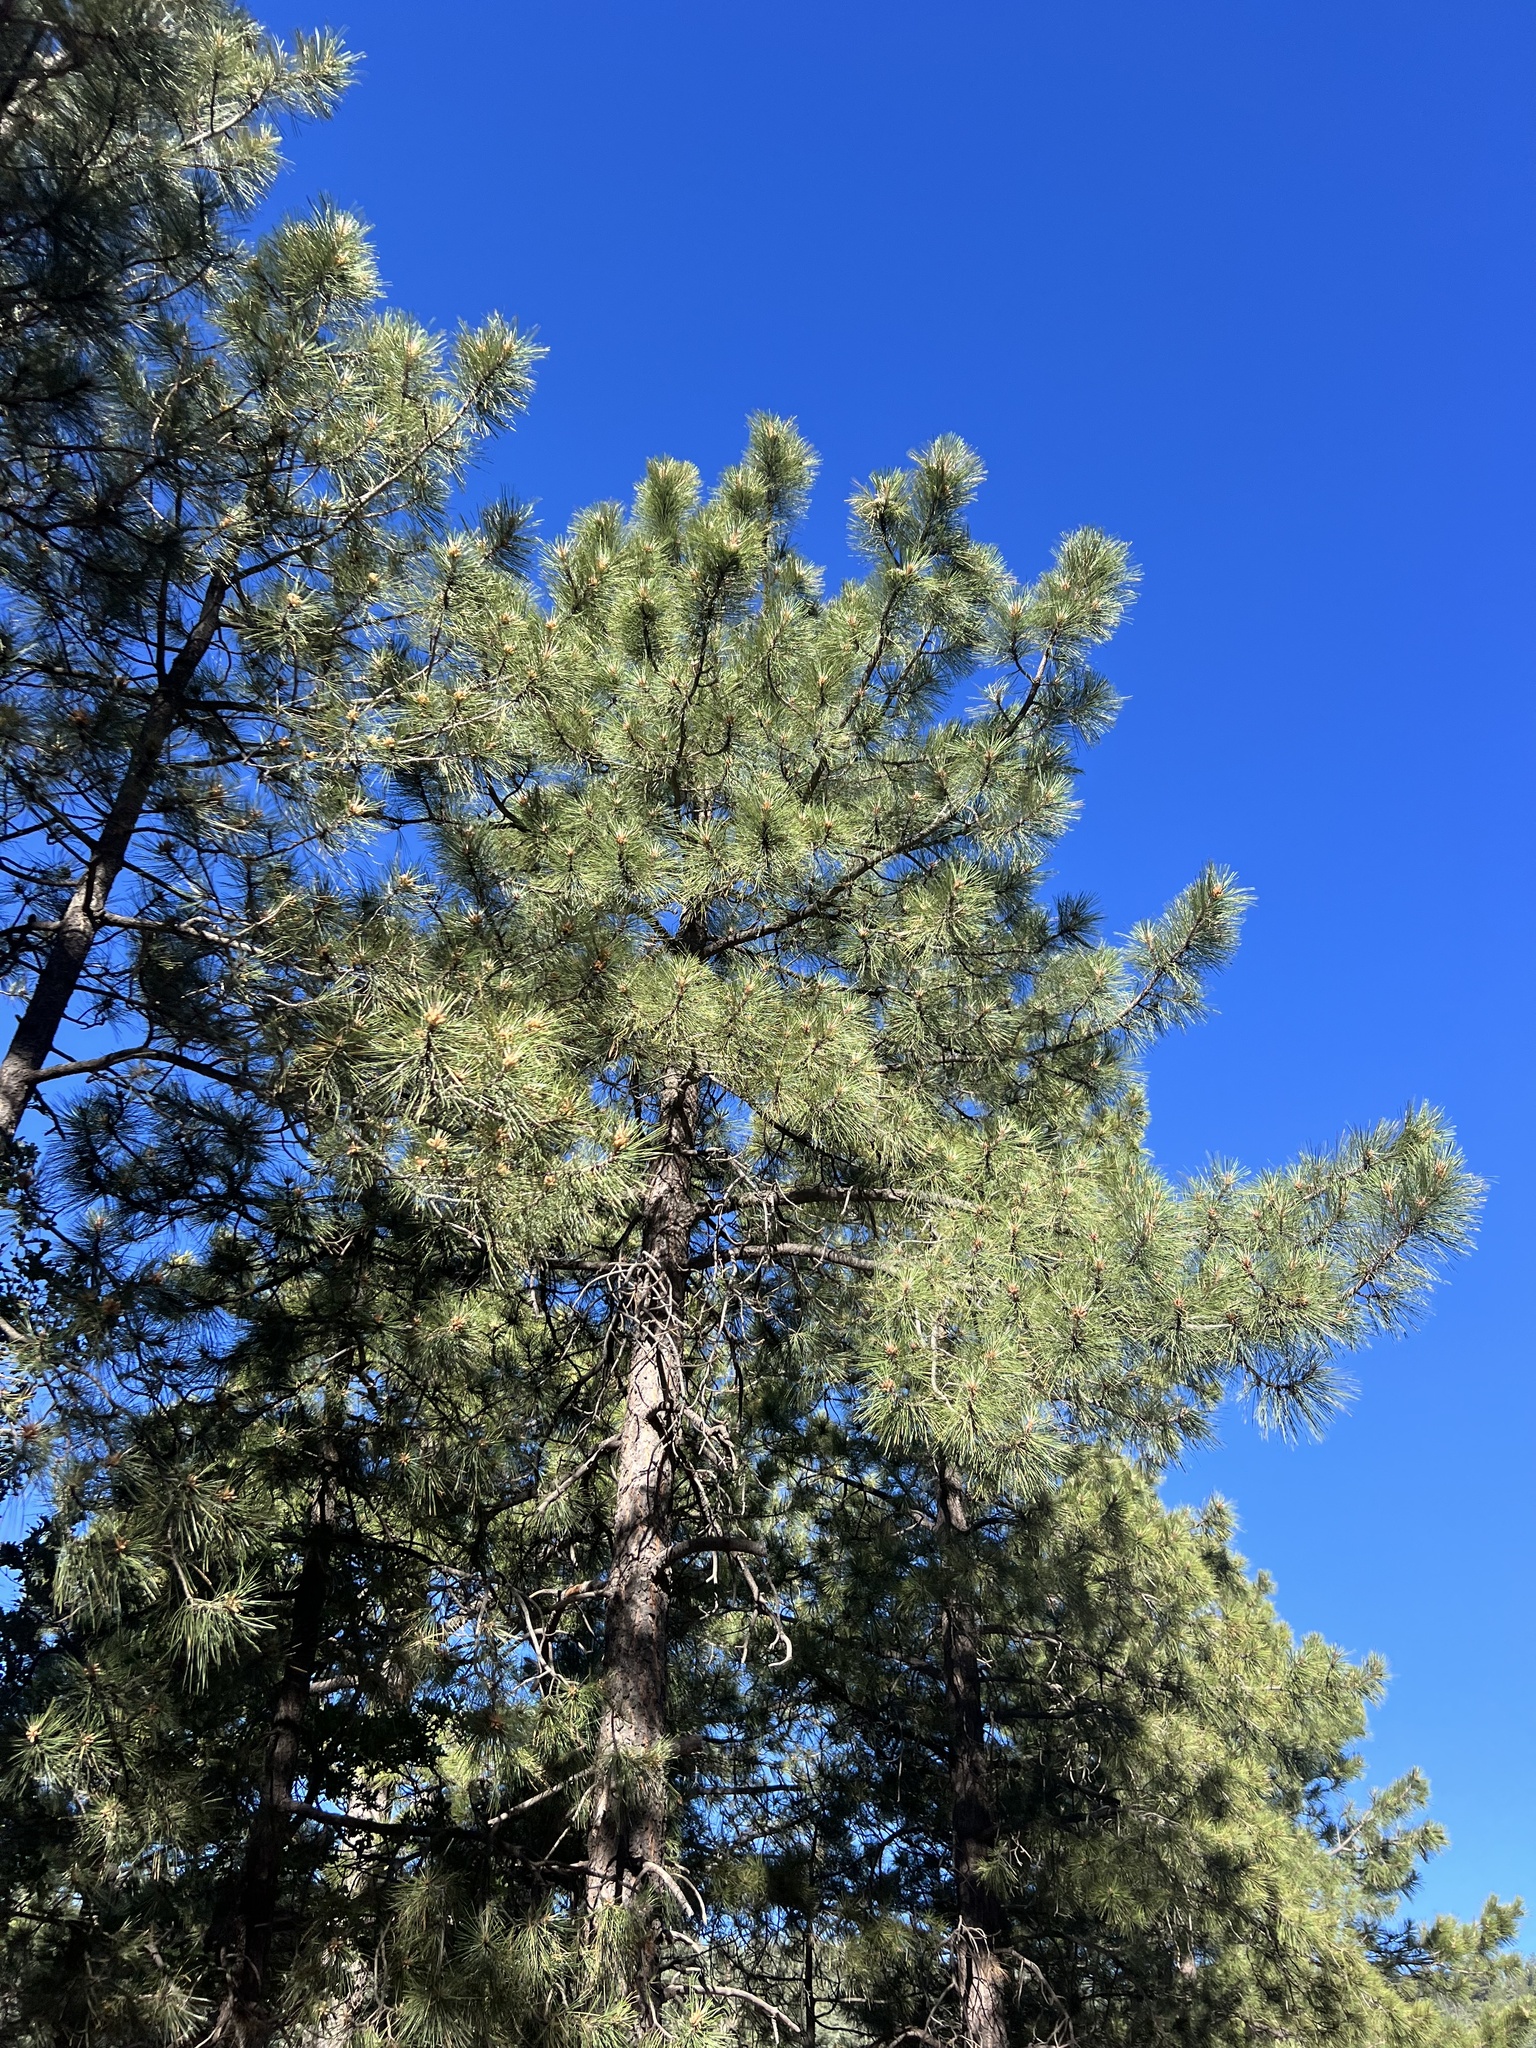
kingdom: Plantae
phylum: Tracheophyta
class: Pinopsida
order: Pinales
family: Pinaceae
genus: Pinus
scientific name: Pinus ponderosa
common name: Western yellow-pine
